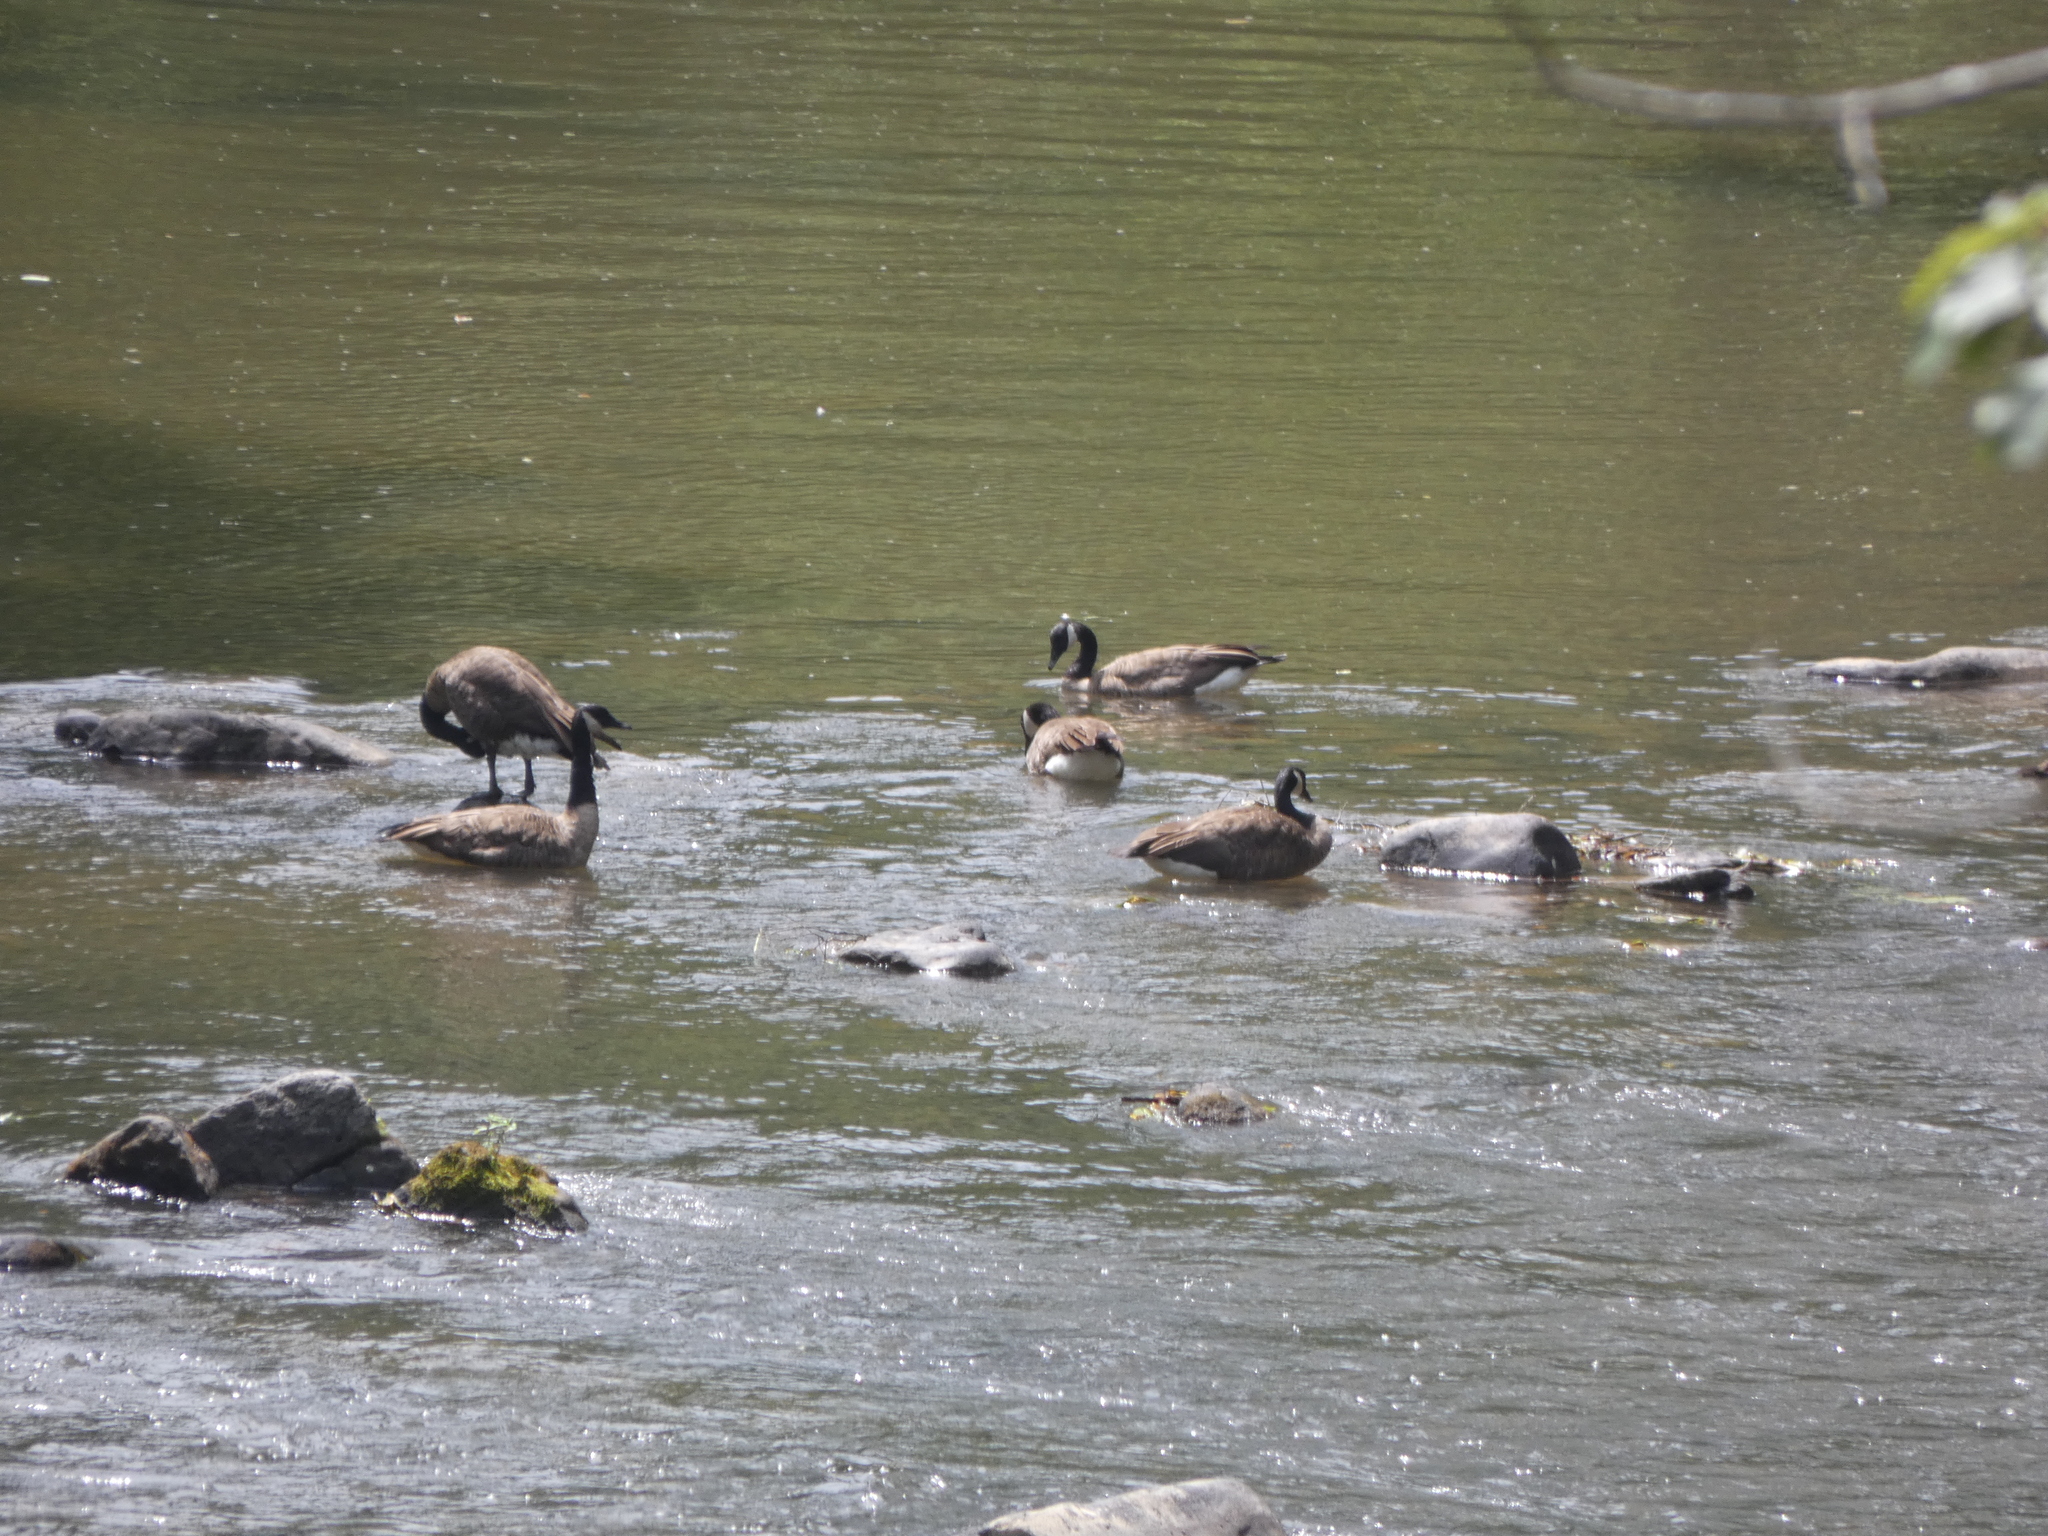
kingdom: Animalia
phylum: Chordata
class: Aves
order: Anseriformes
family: Anatidae
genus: Branta
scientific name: Branta canadensis
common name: Canada goose
